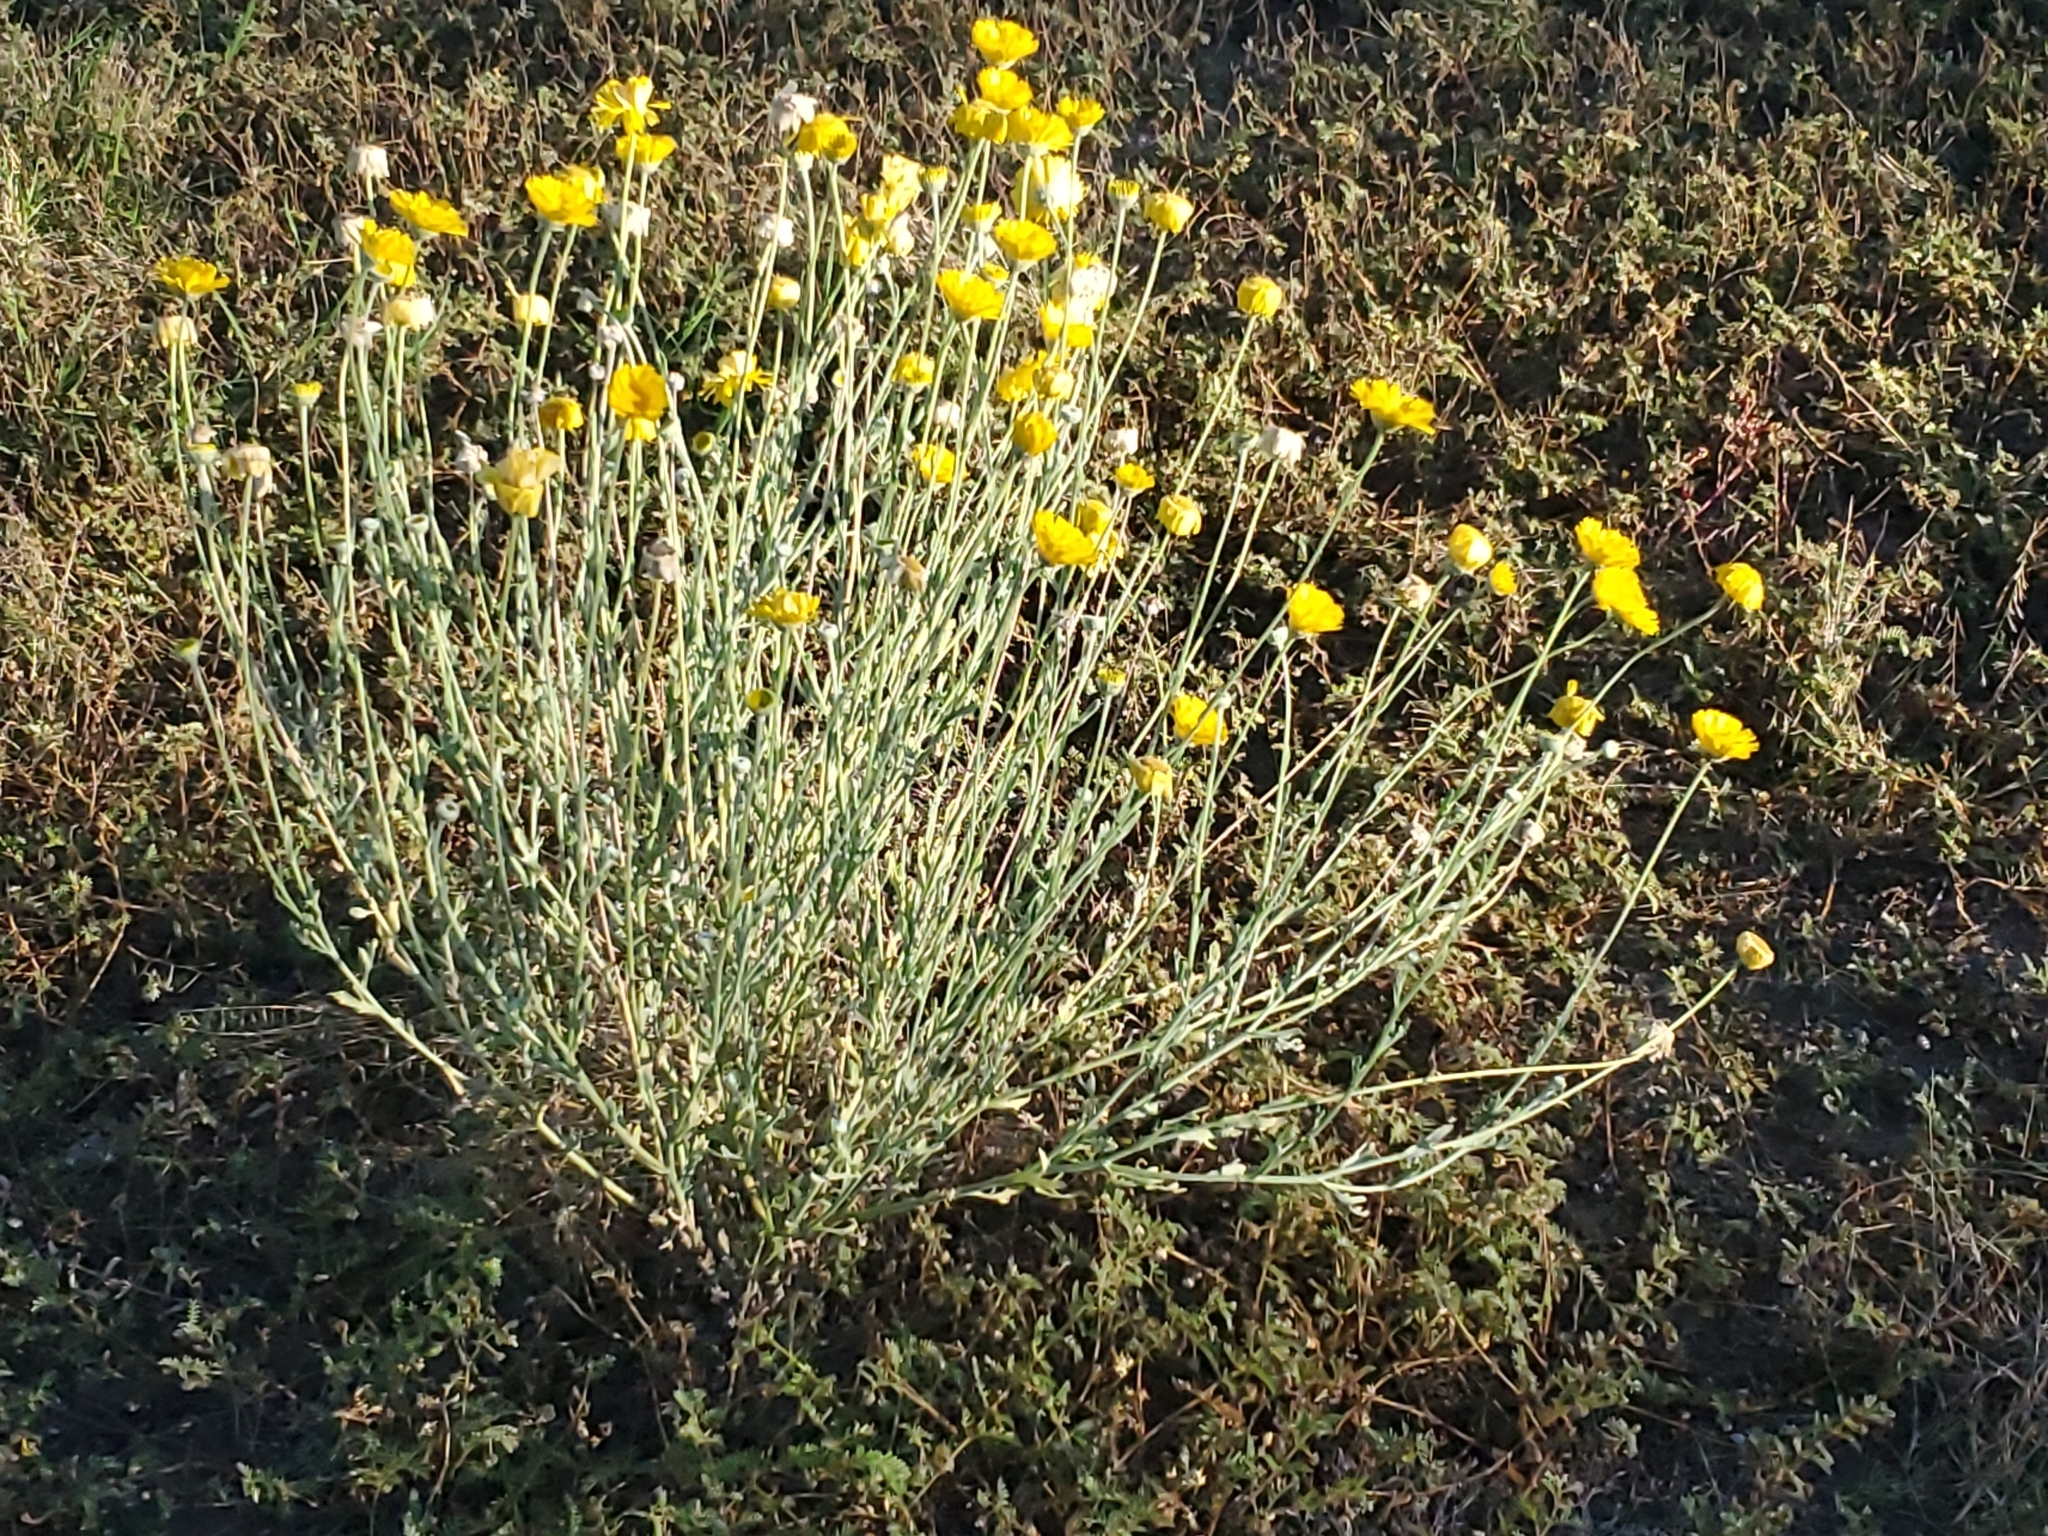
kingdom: Plantae
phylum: Tracheophyta
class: Magnoliopsida
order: Asterales
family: Asteraceae
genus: Baileya
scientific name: Baileya multiradiata
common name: Desert-marigold
